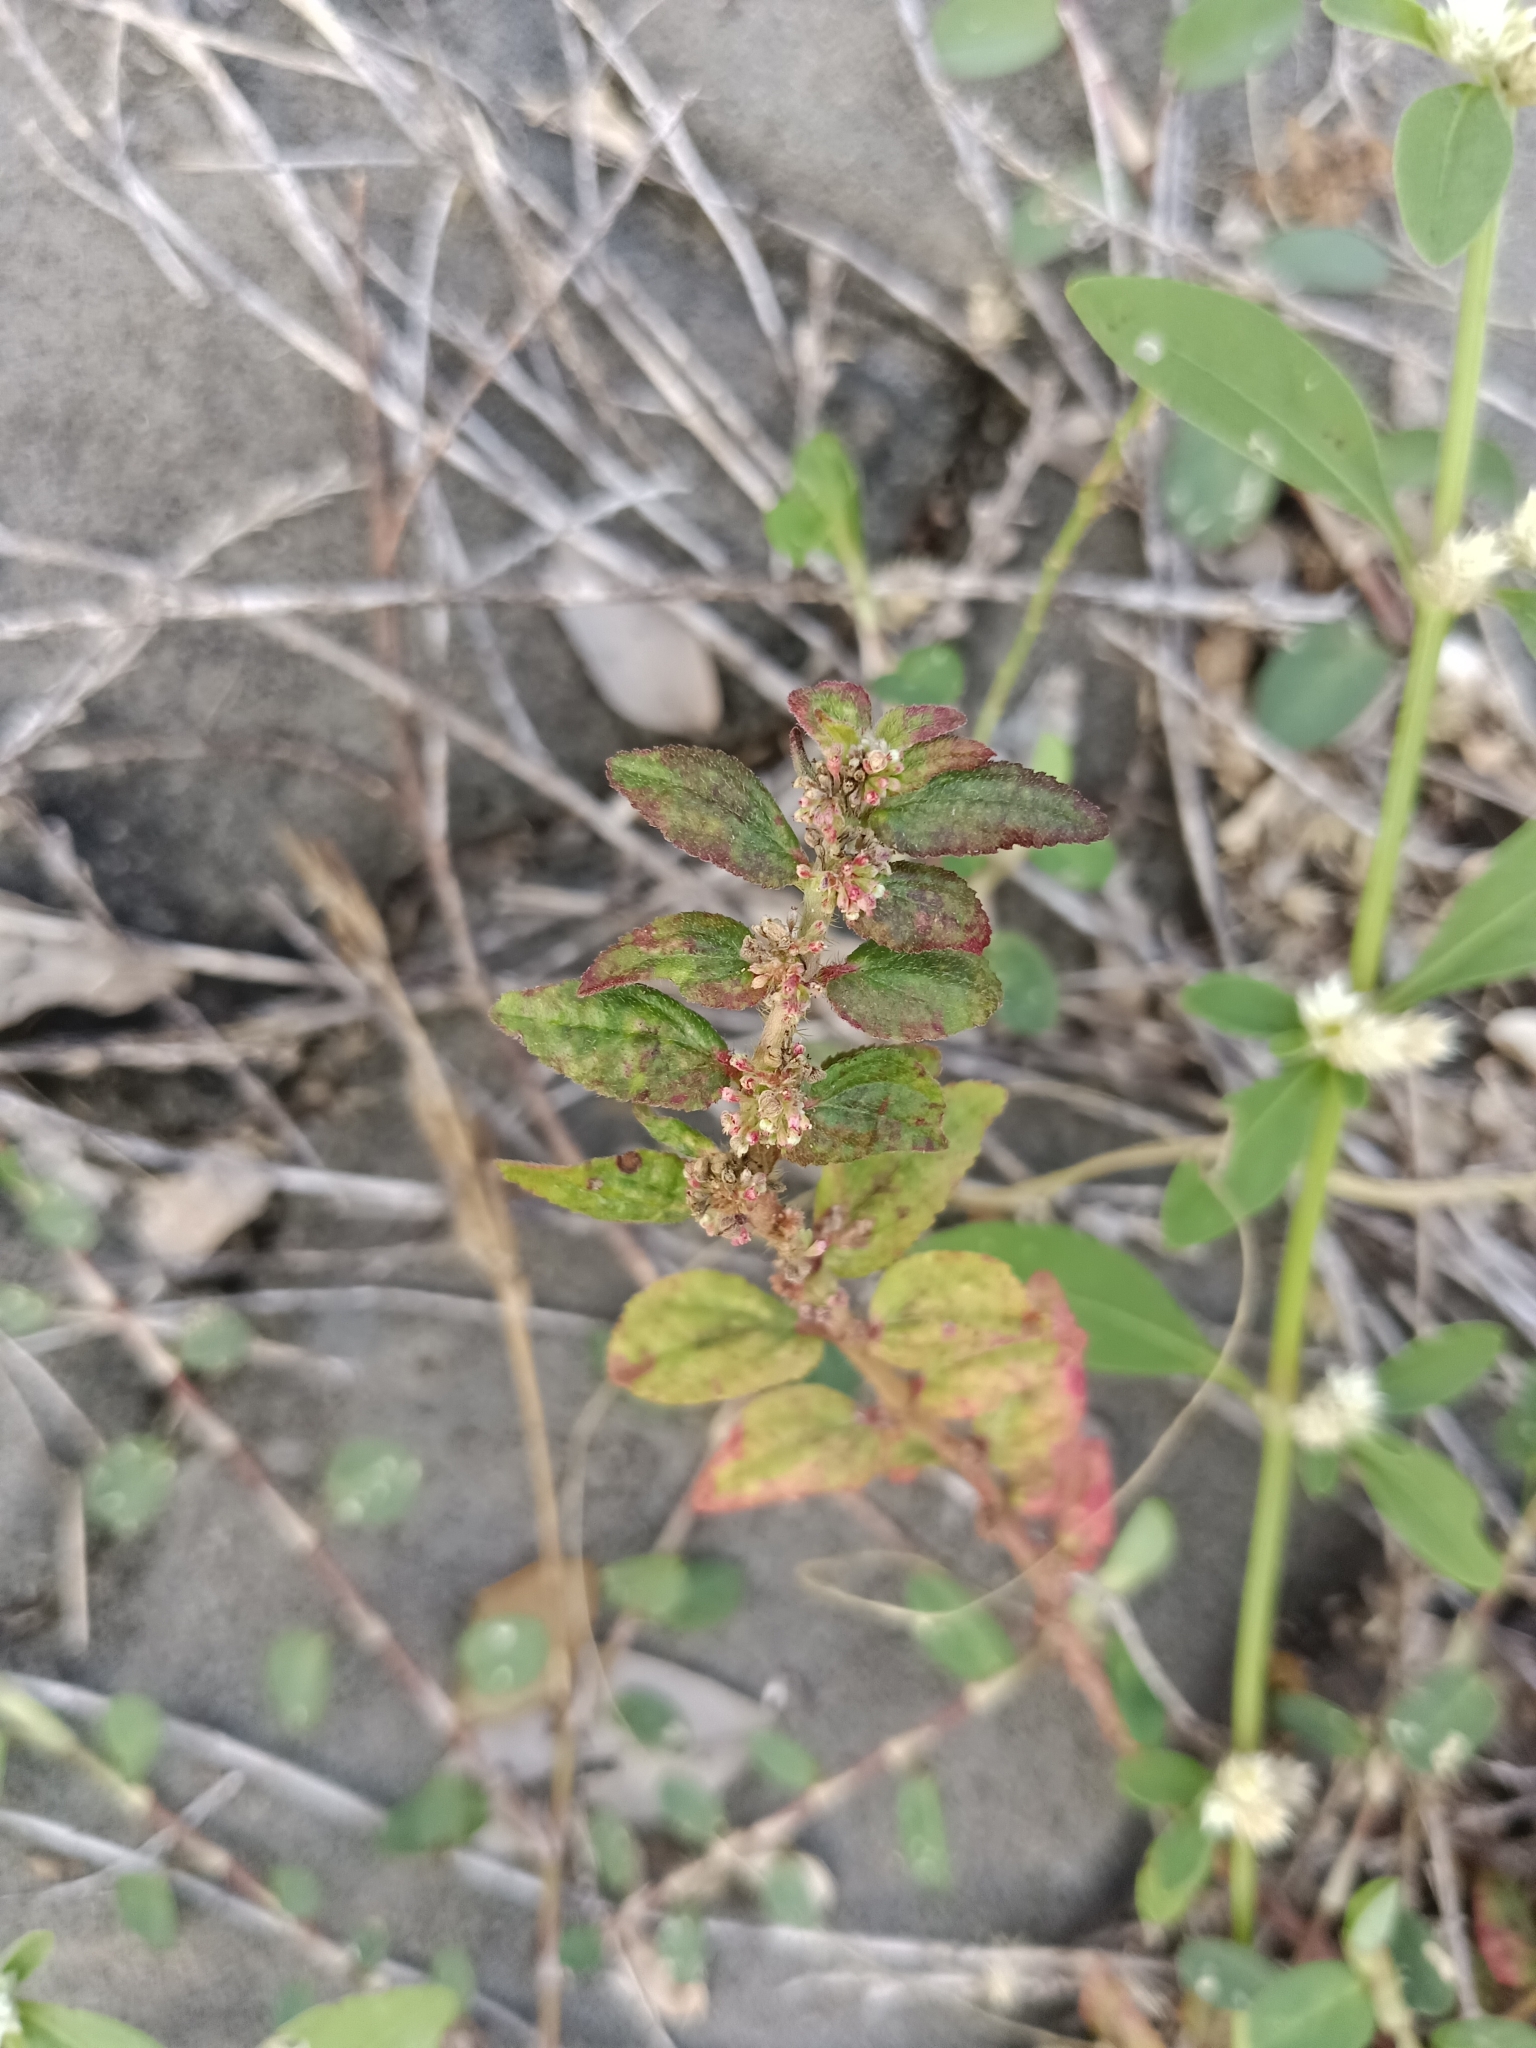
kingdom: Plantae
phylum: Tracheophyta
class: Magnoliopsida
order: Malpighiales
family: Euphorbiaceae
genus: Euphorbia
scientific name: Euphorbia hirta
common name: Pillpod sandmat
